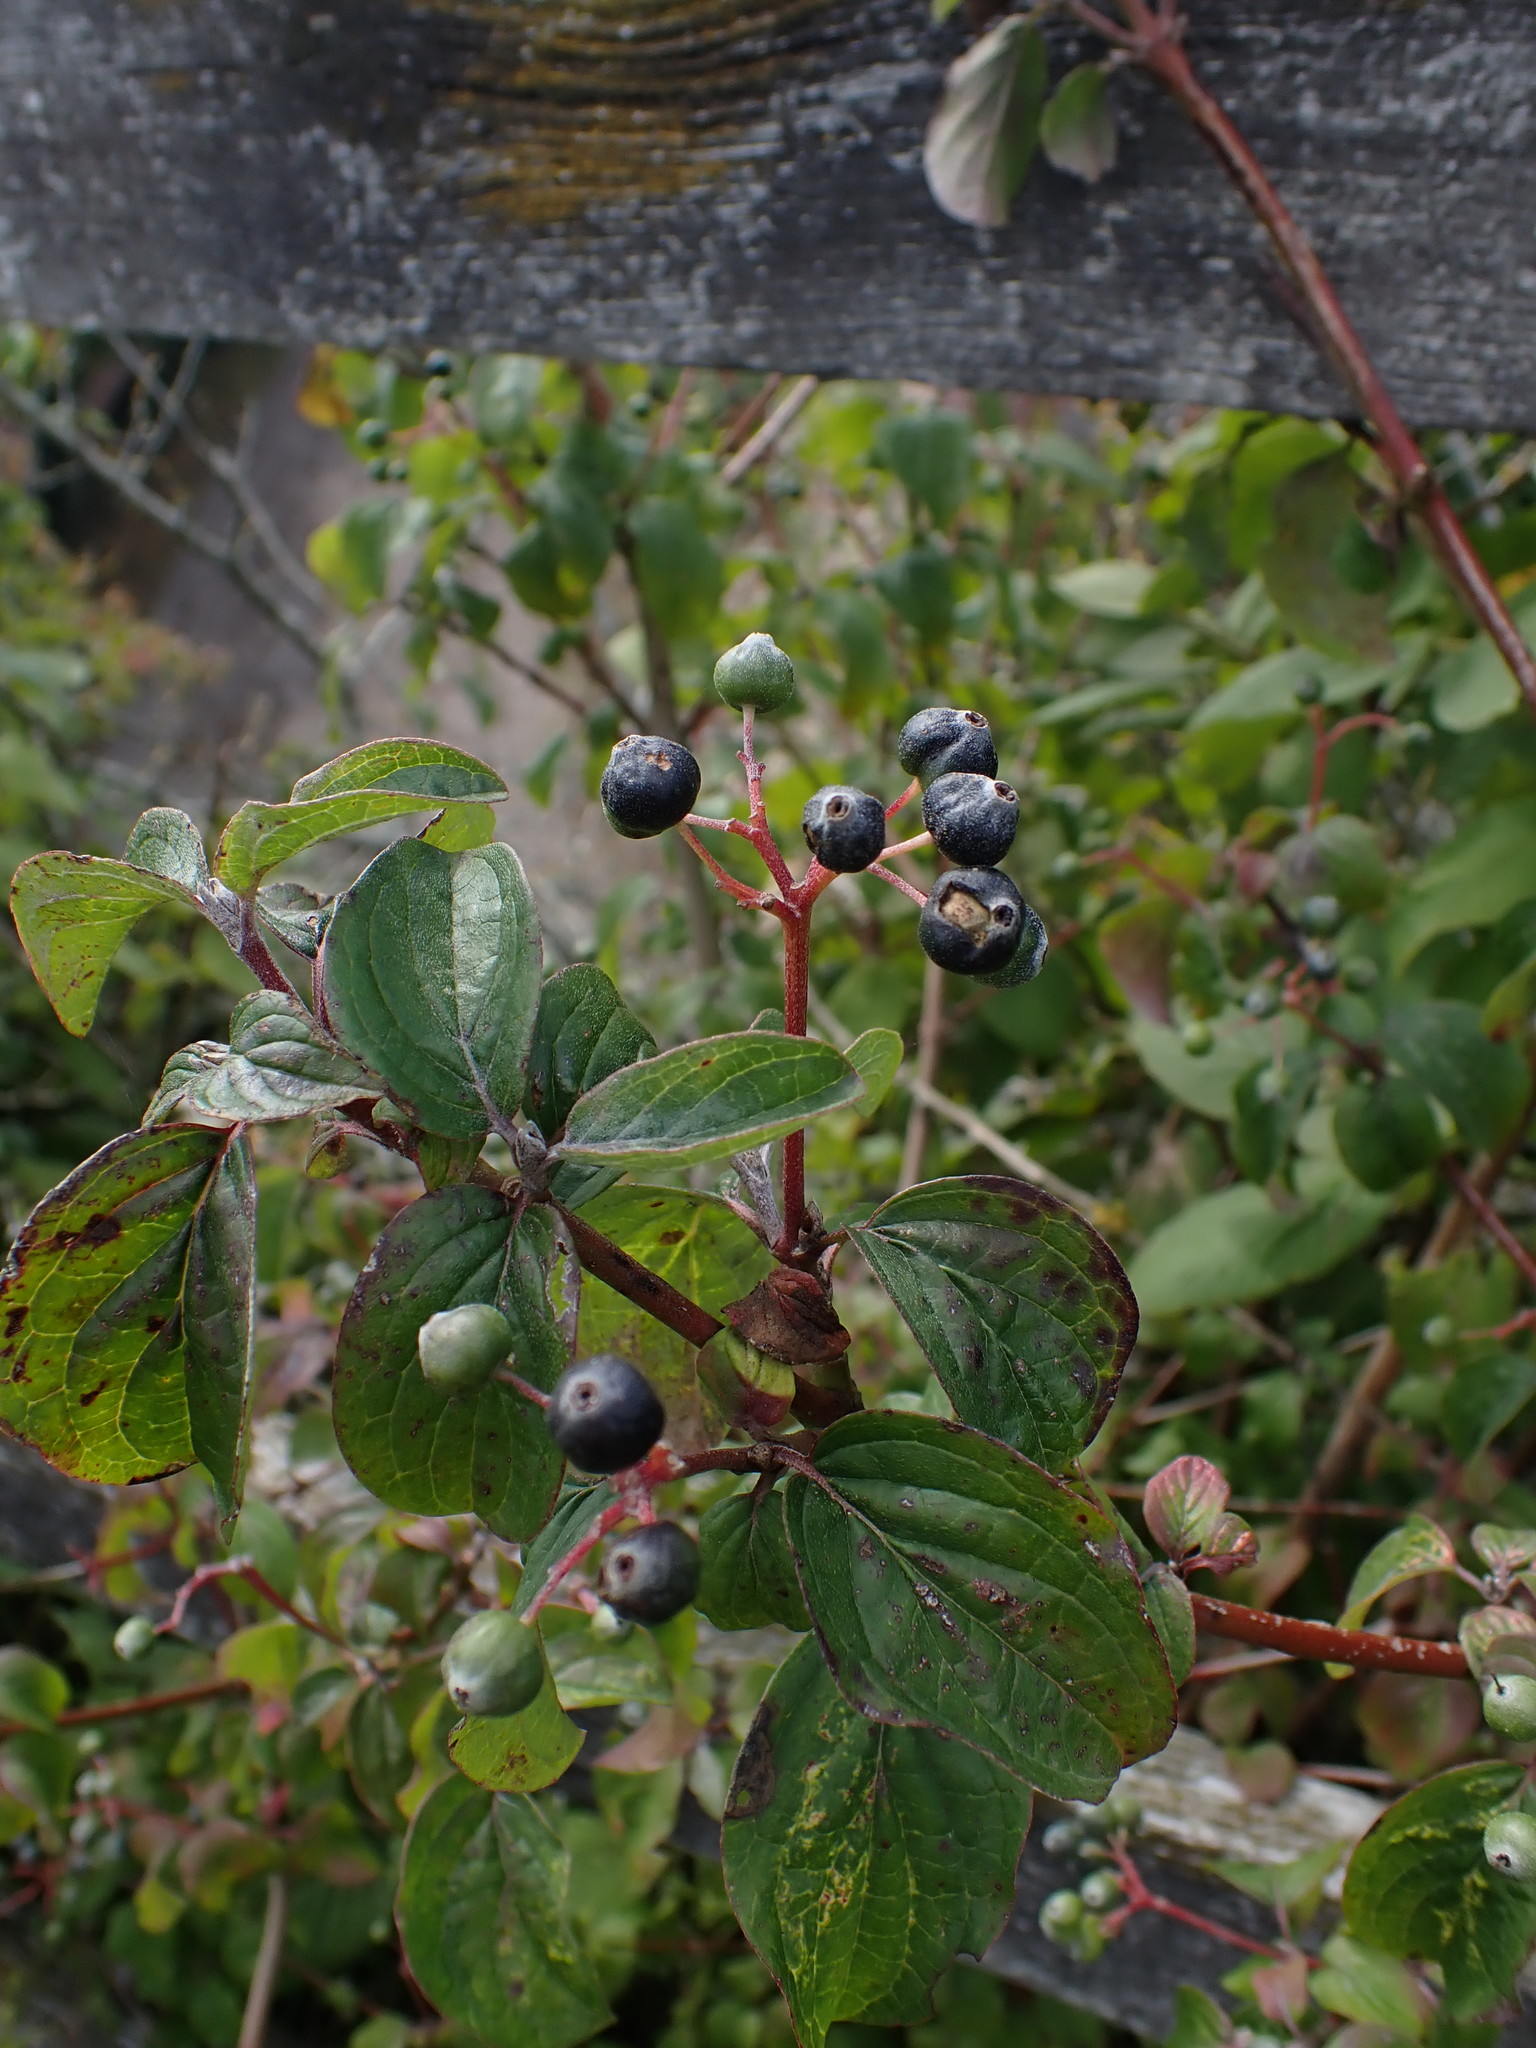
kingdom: Plantae
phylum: Tracheophyta
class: Magnoliopsida
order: Cornales
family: Cornaceae
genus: Cornus
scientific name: Cornus sanguinea
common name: Dogwood
